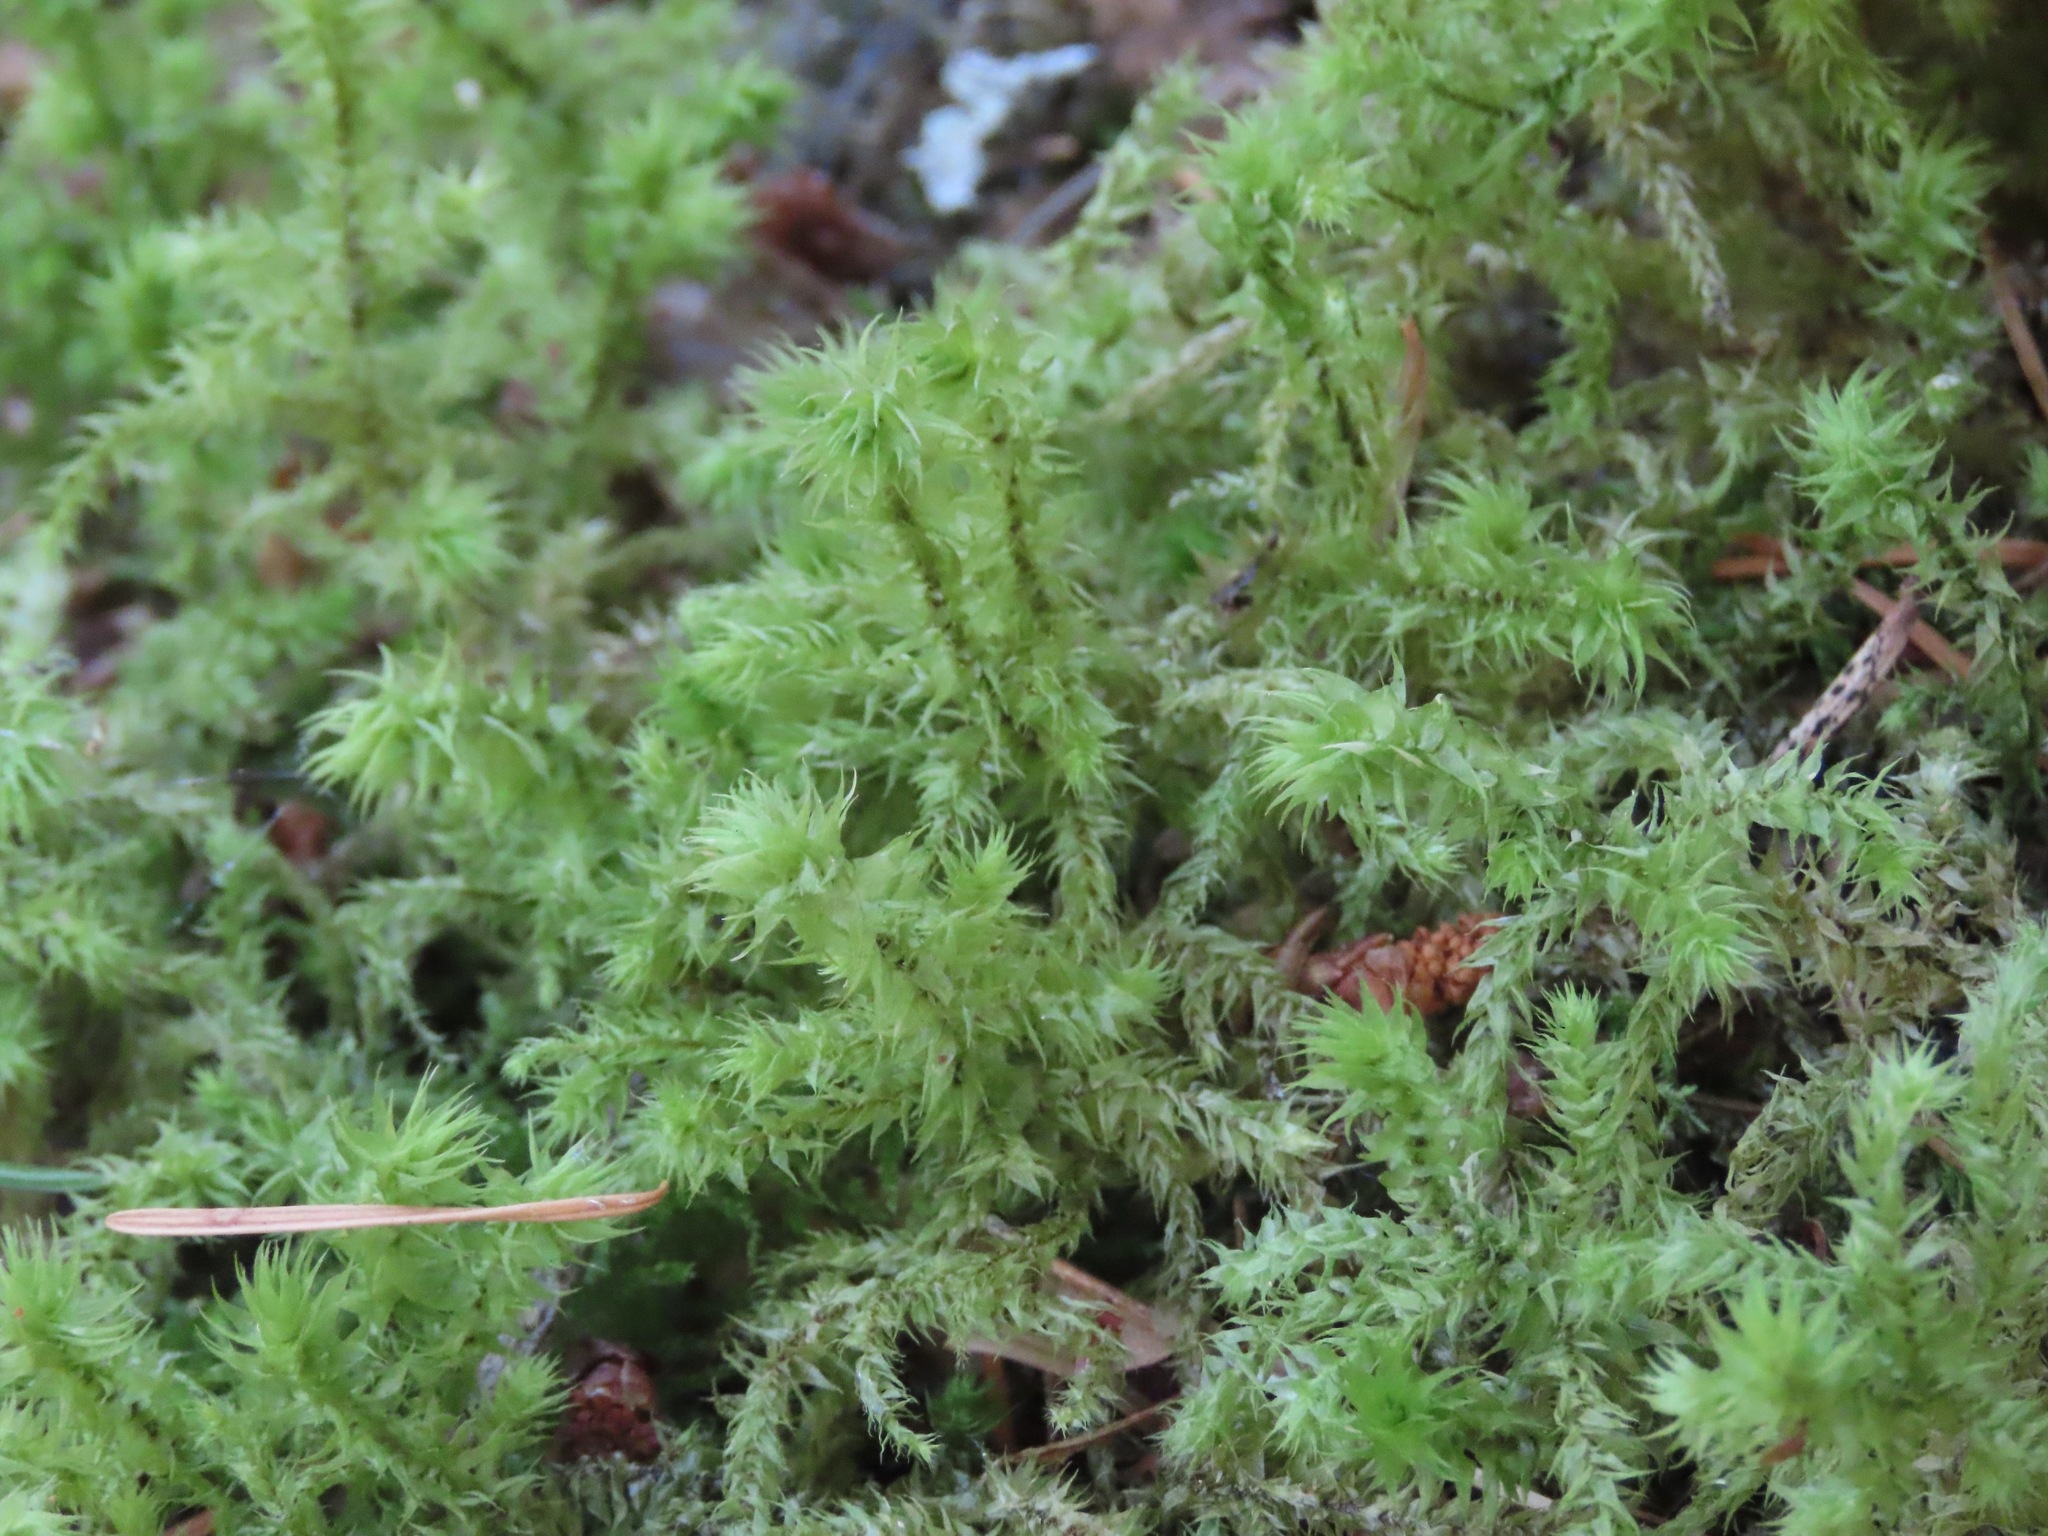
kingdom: Plantae
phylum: Bryophyta
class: Bryopsida
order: Hypnales
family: Hylocomiaceae
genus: Hylocomiadelphus
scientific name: Hylocomiadelphus triquetrus
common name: Rough goose neck moss
